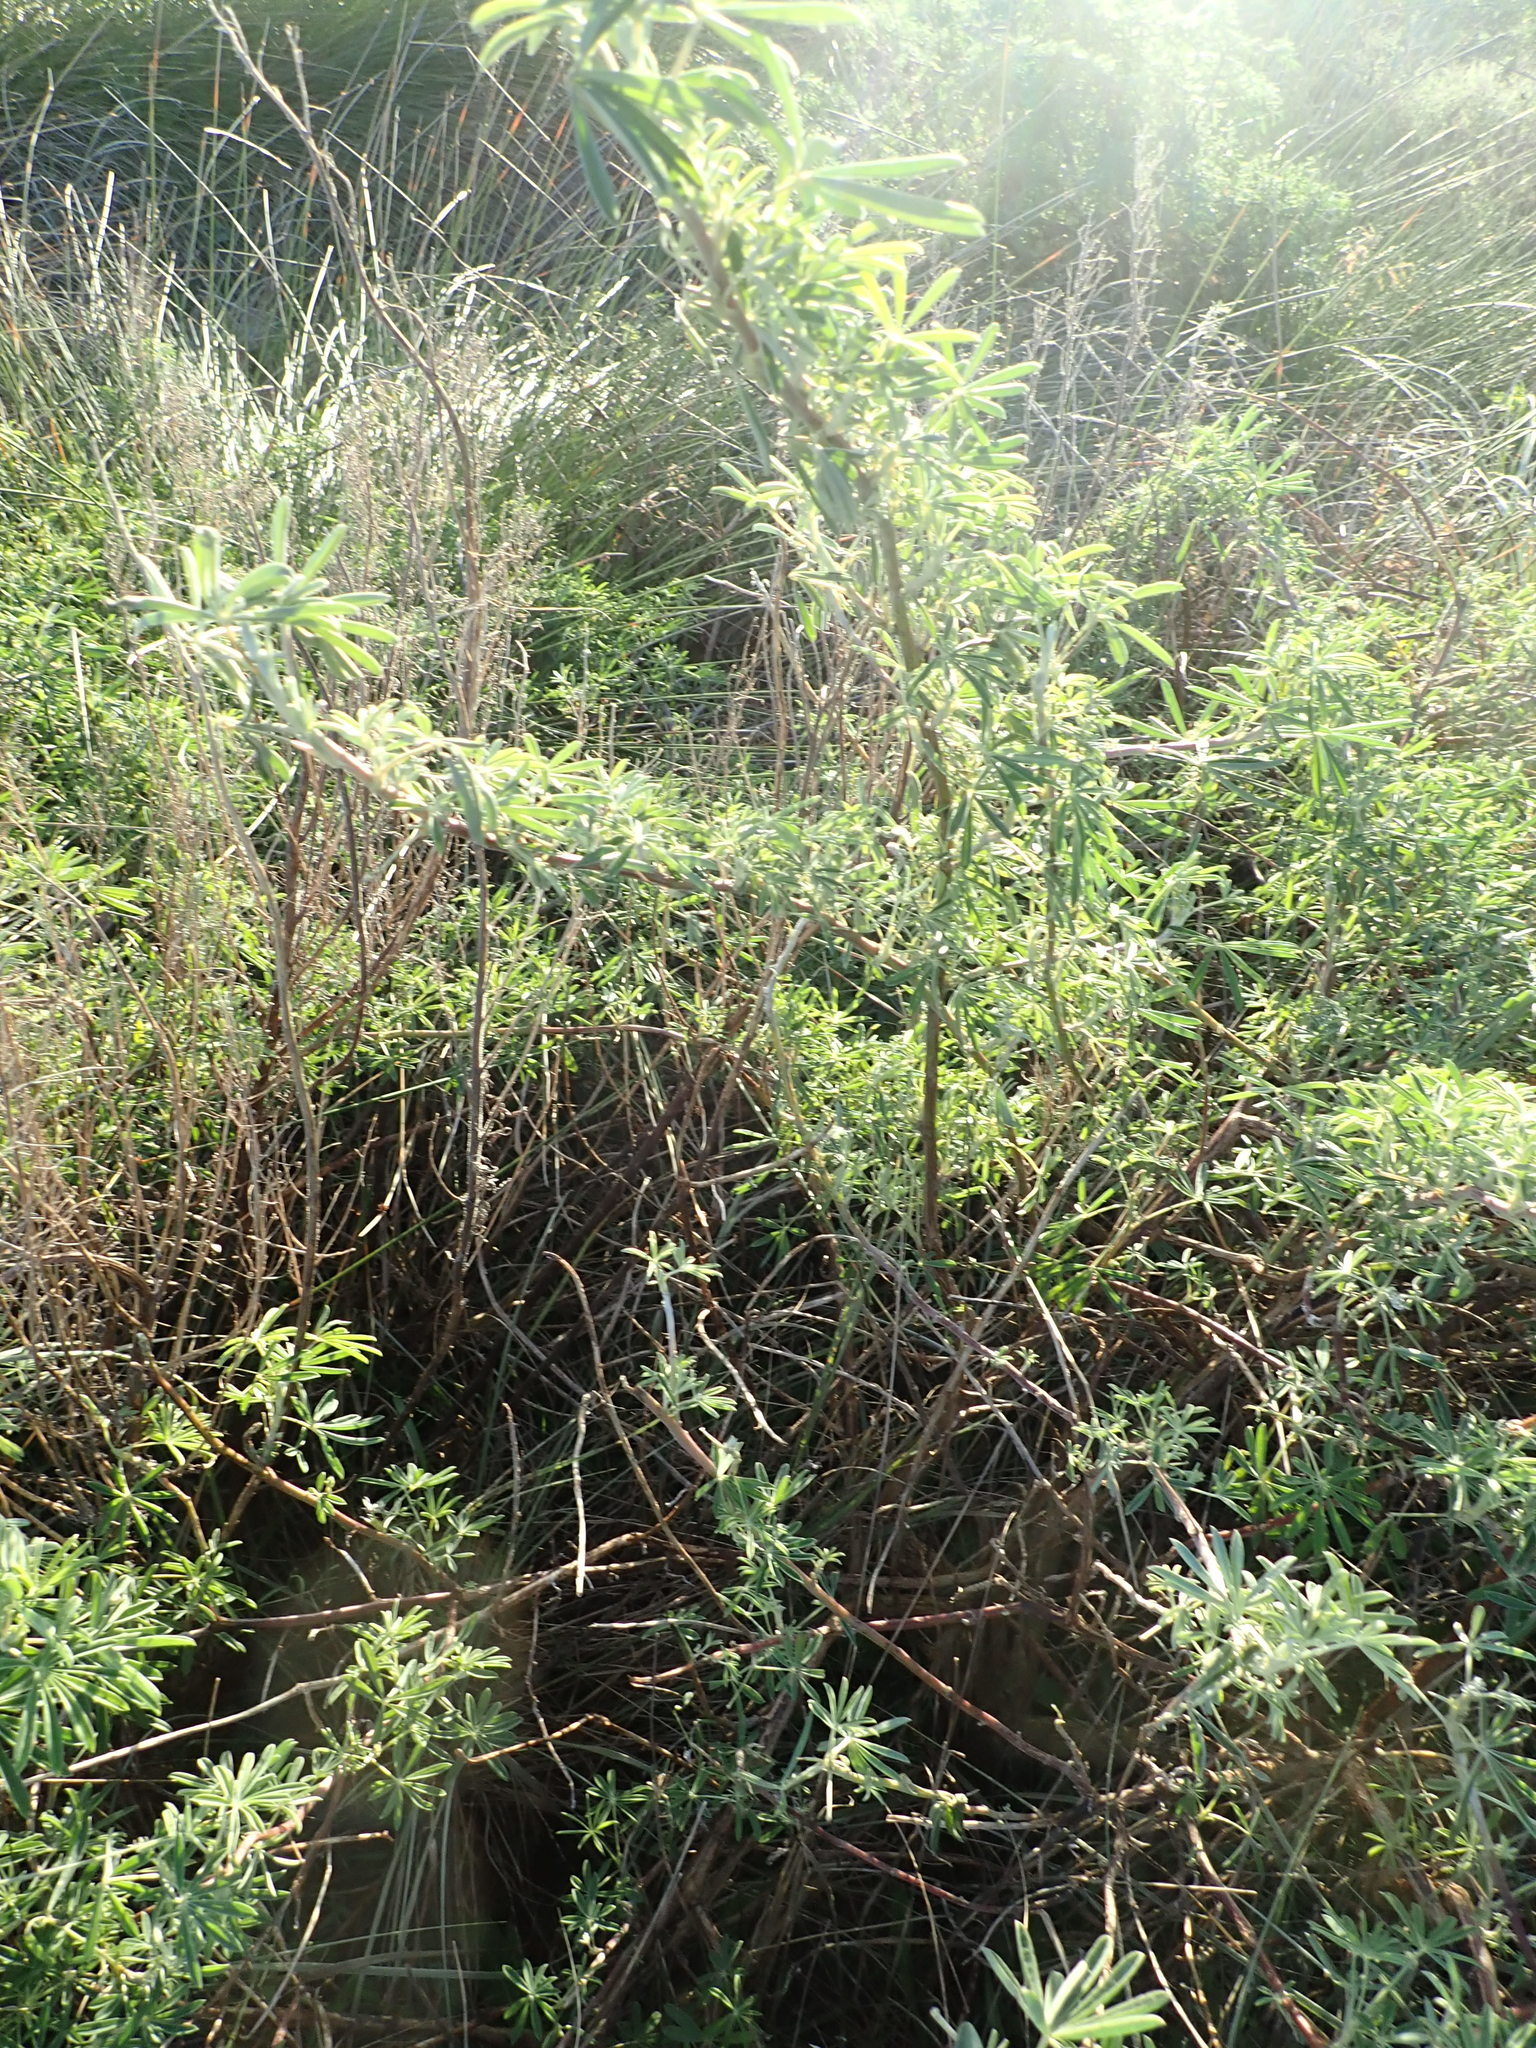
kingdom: Plantae
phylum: Tracheophyta
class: Magnoliopsida
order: Fabales
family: Fabaceae
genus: Lupinus
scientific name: Lupinus arboreus
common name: Yellow bush lupine
